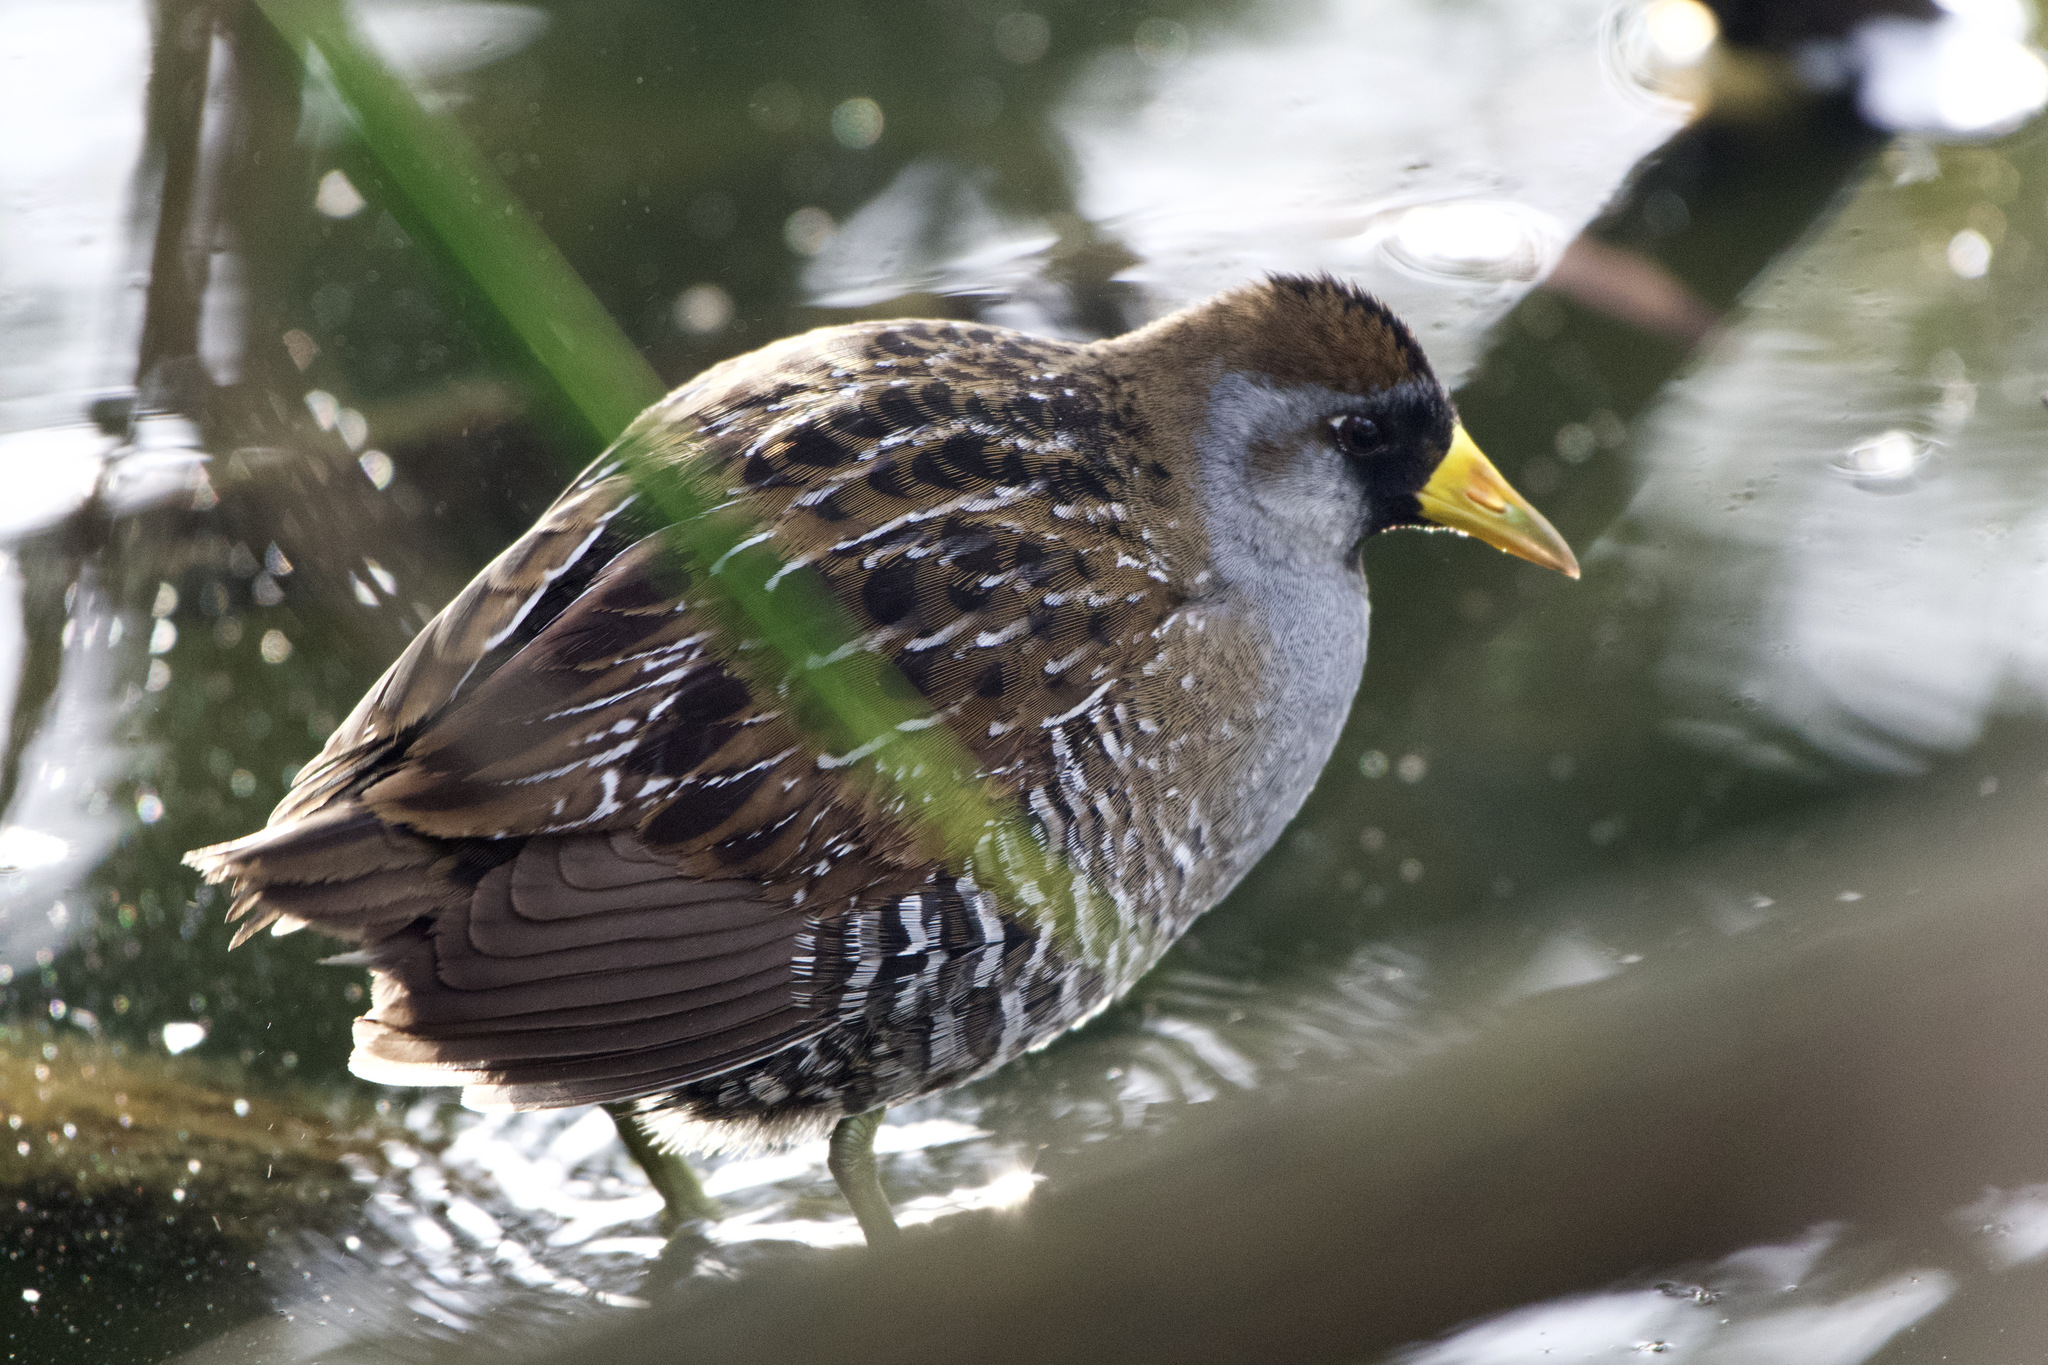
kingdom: Animalia
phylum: Chordata
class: Aves
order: Gruiformes
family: Rallidae
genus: Porzana
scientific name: Porzana carolina
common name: Sora
